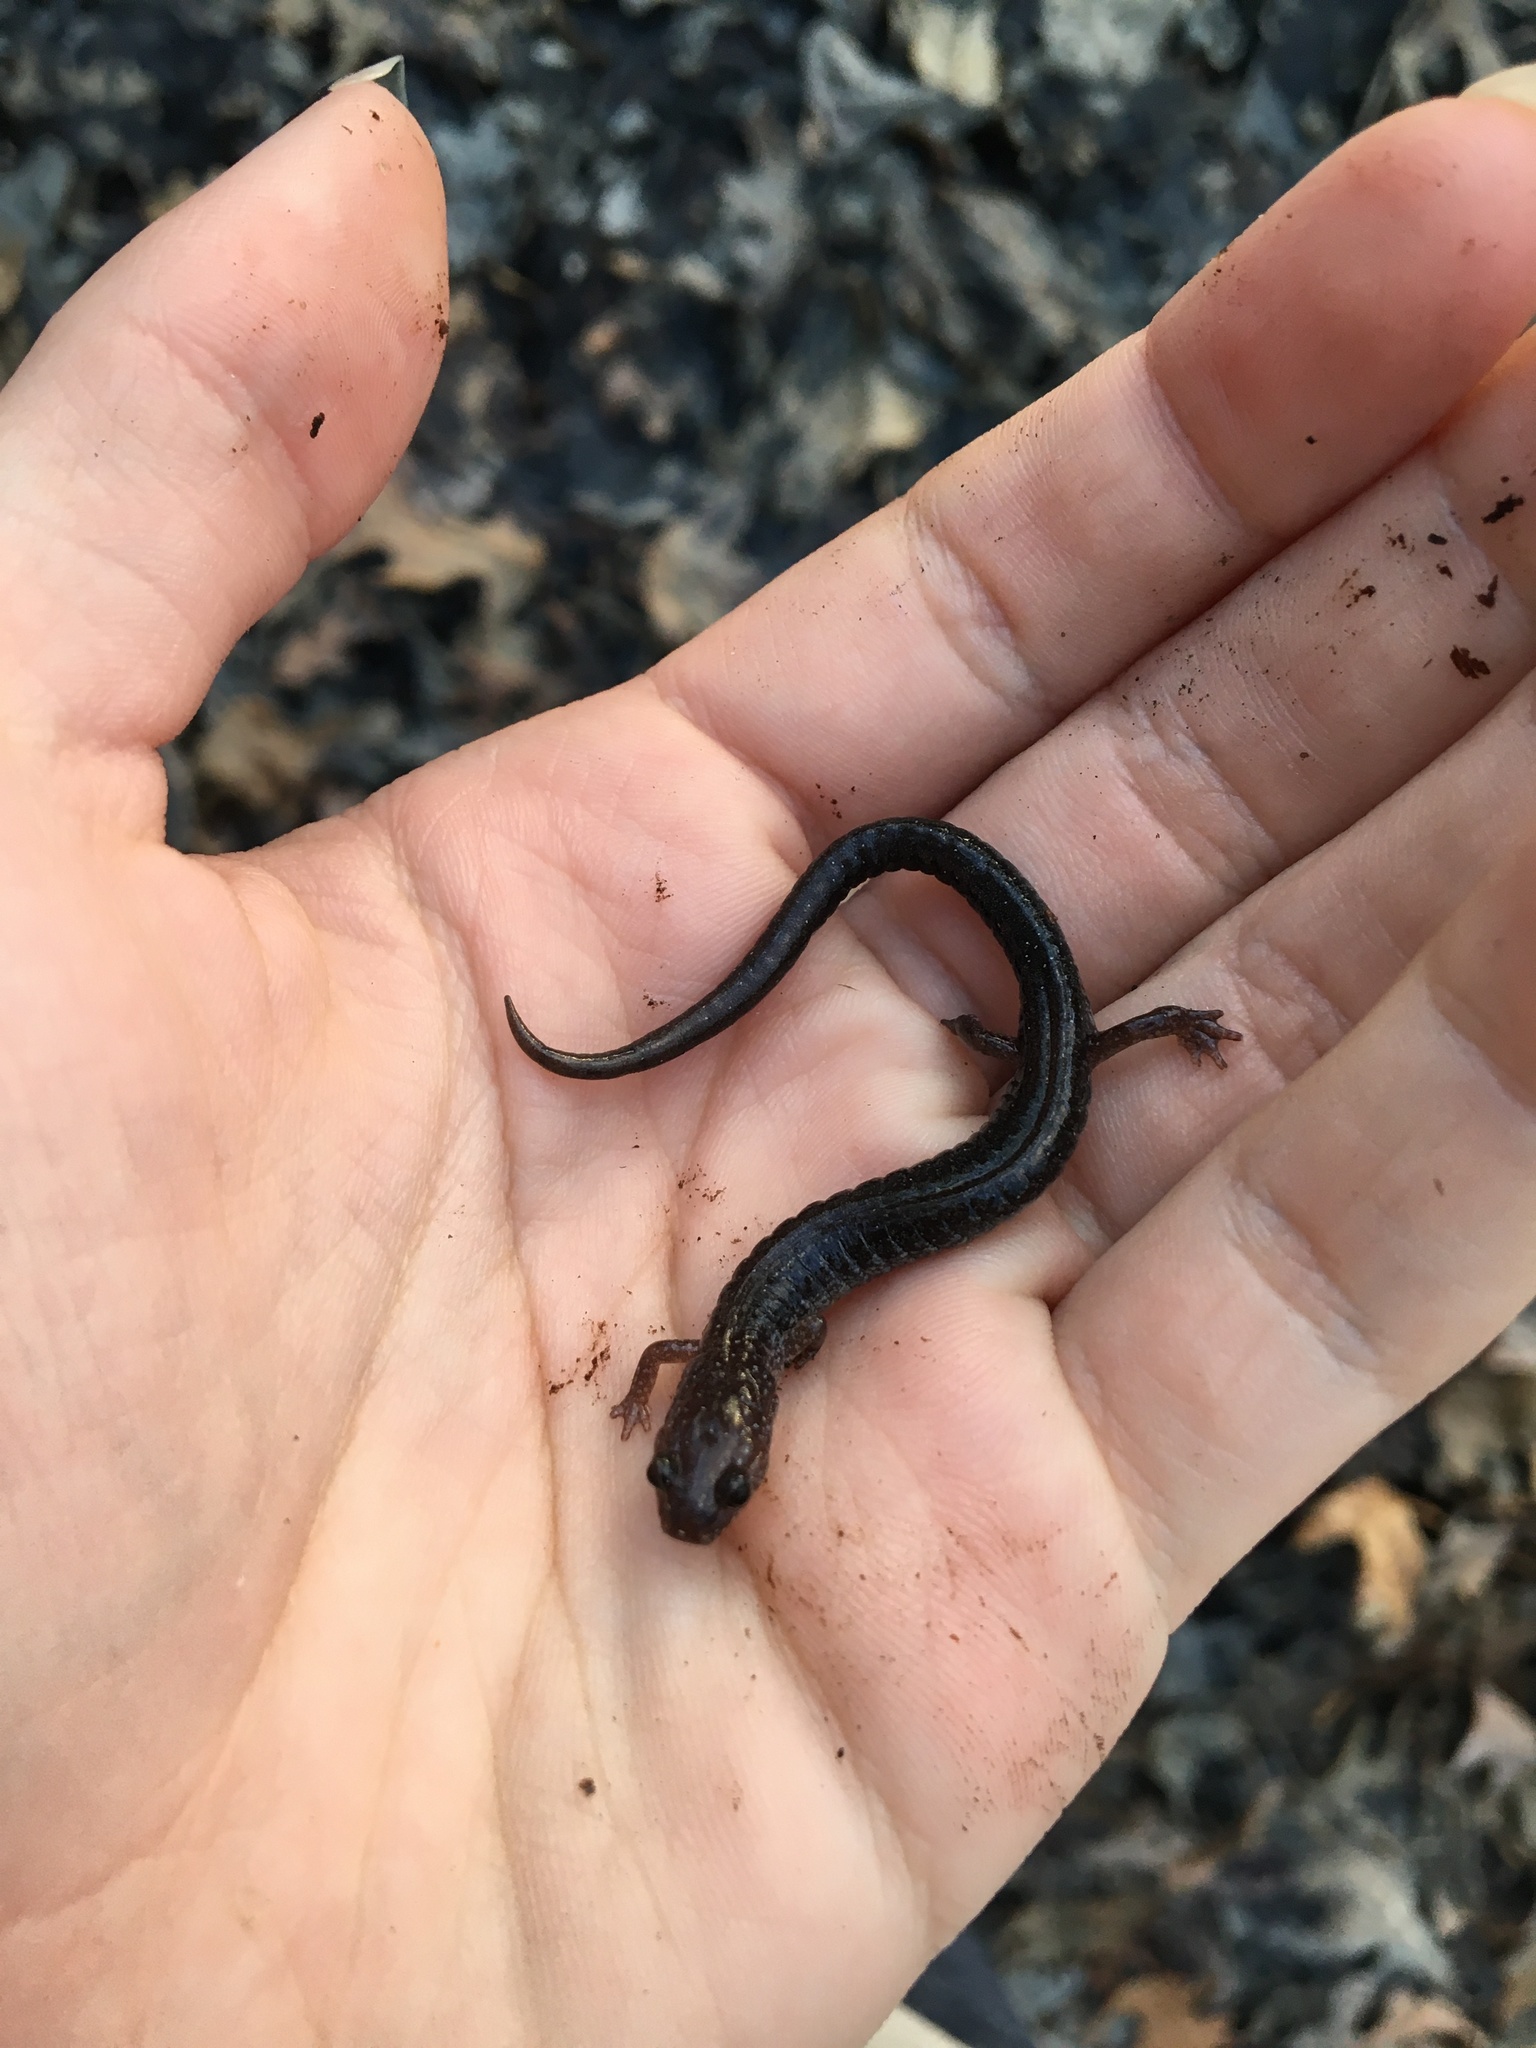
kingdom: Animalia
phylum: Chordata
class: Amphibia
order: Caudata
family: Plethodontidae
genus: Plethodon
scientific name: Plethodon cinereus
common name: Redback salamander
